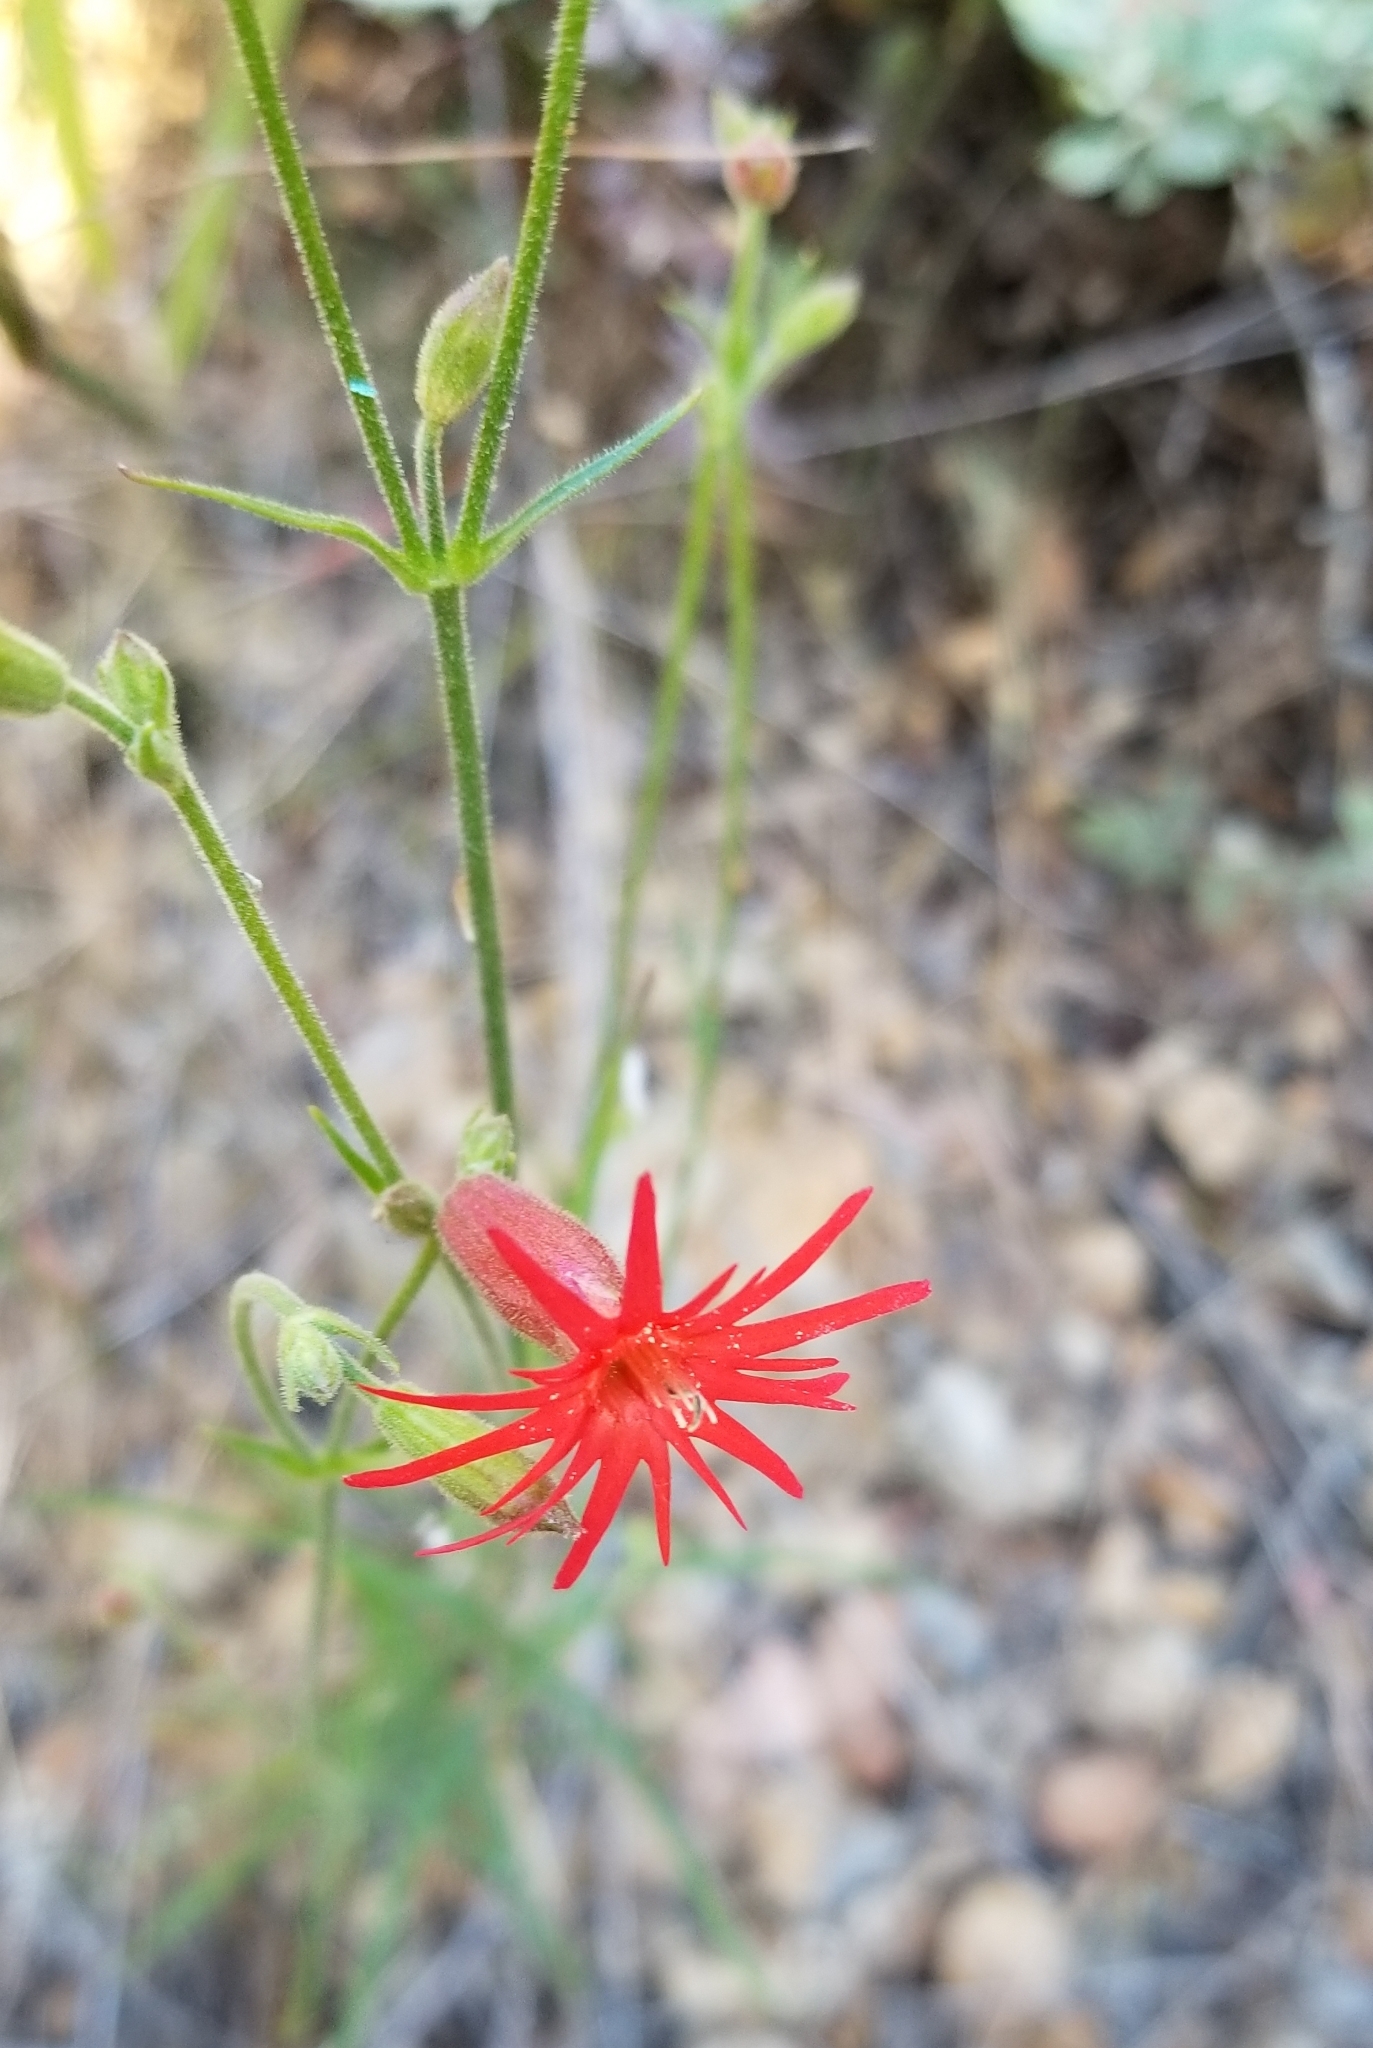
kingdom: Plantae
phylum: Tracheophyta
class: Magnoliopsida
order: Caryophyllales
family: Caryophyllaceae
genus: Silene
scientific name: Silene laciniata
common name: Indian-pink
